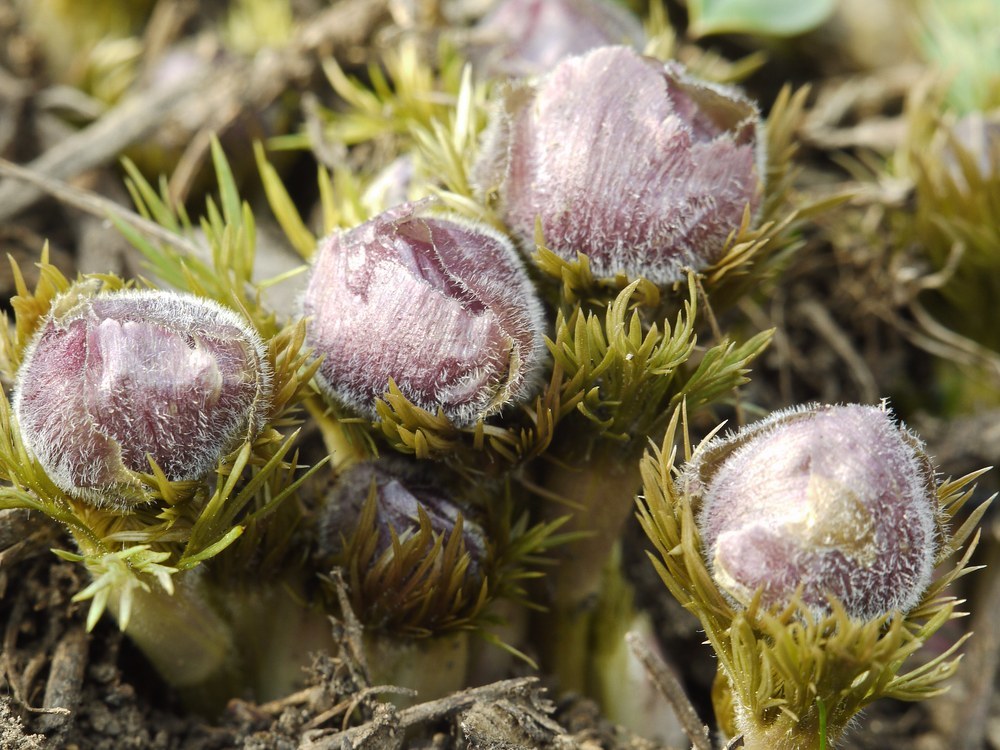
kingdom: Plantae
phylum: Tracheophyta
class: Magnoliopsida
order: Ranunculales
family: Ranunculaceae
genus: Adonis
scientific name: Adonis vernalis
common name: Yellow pheasants-eye
